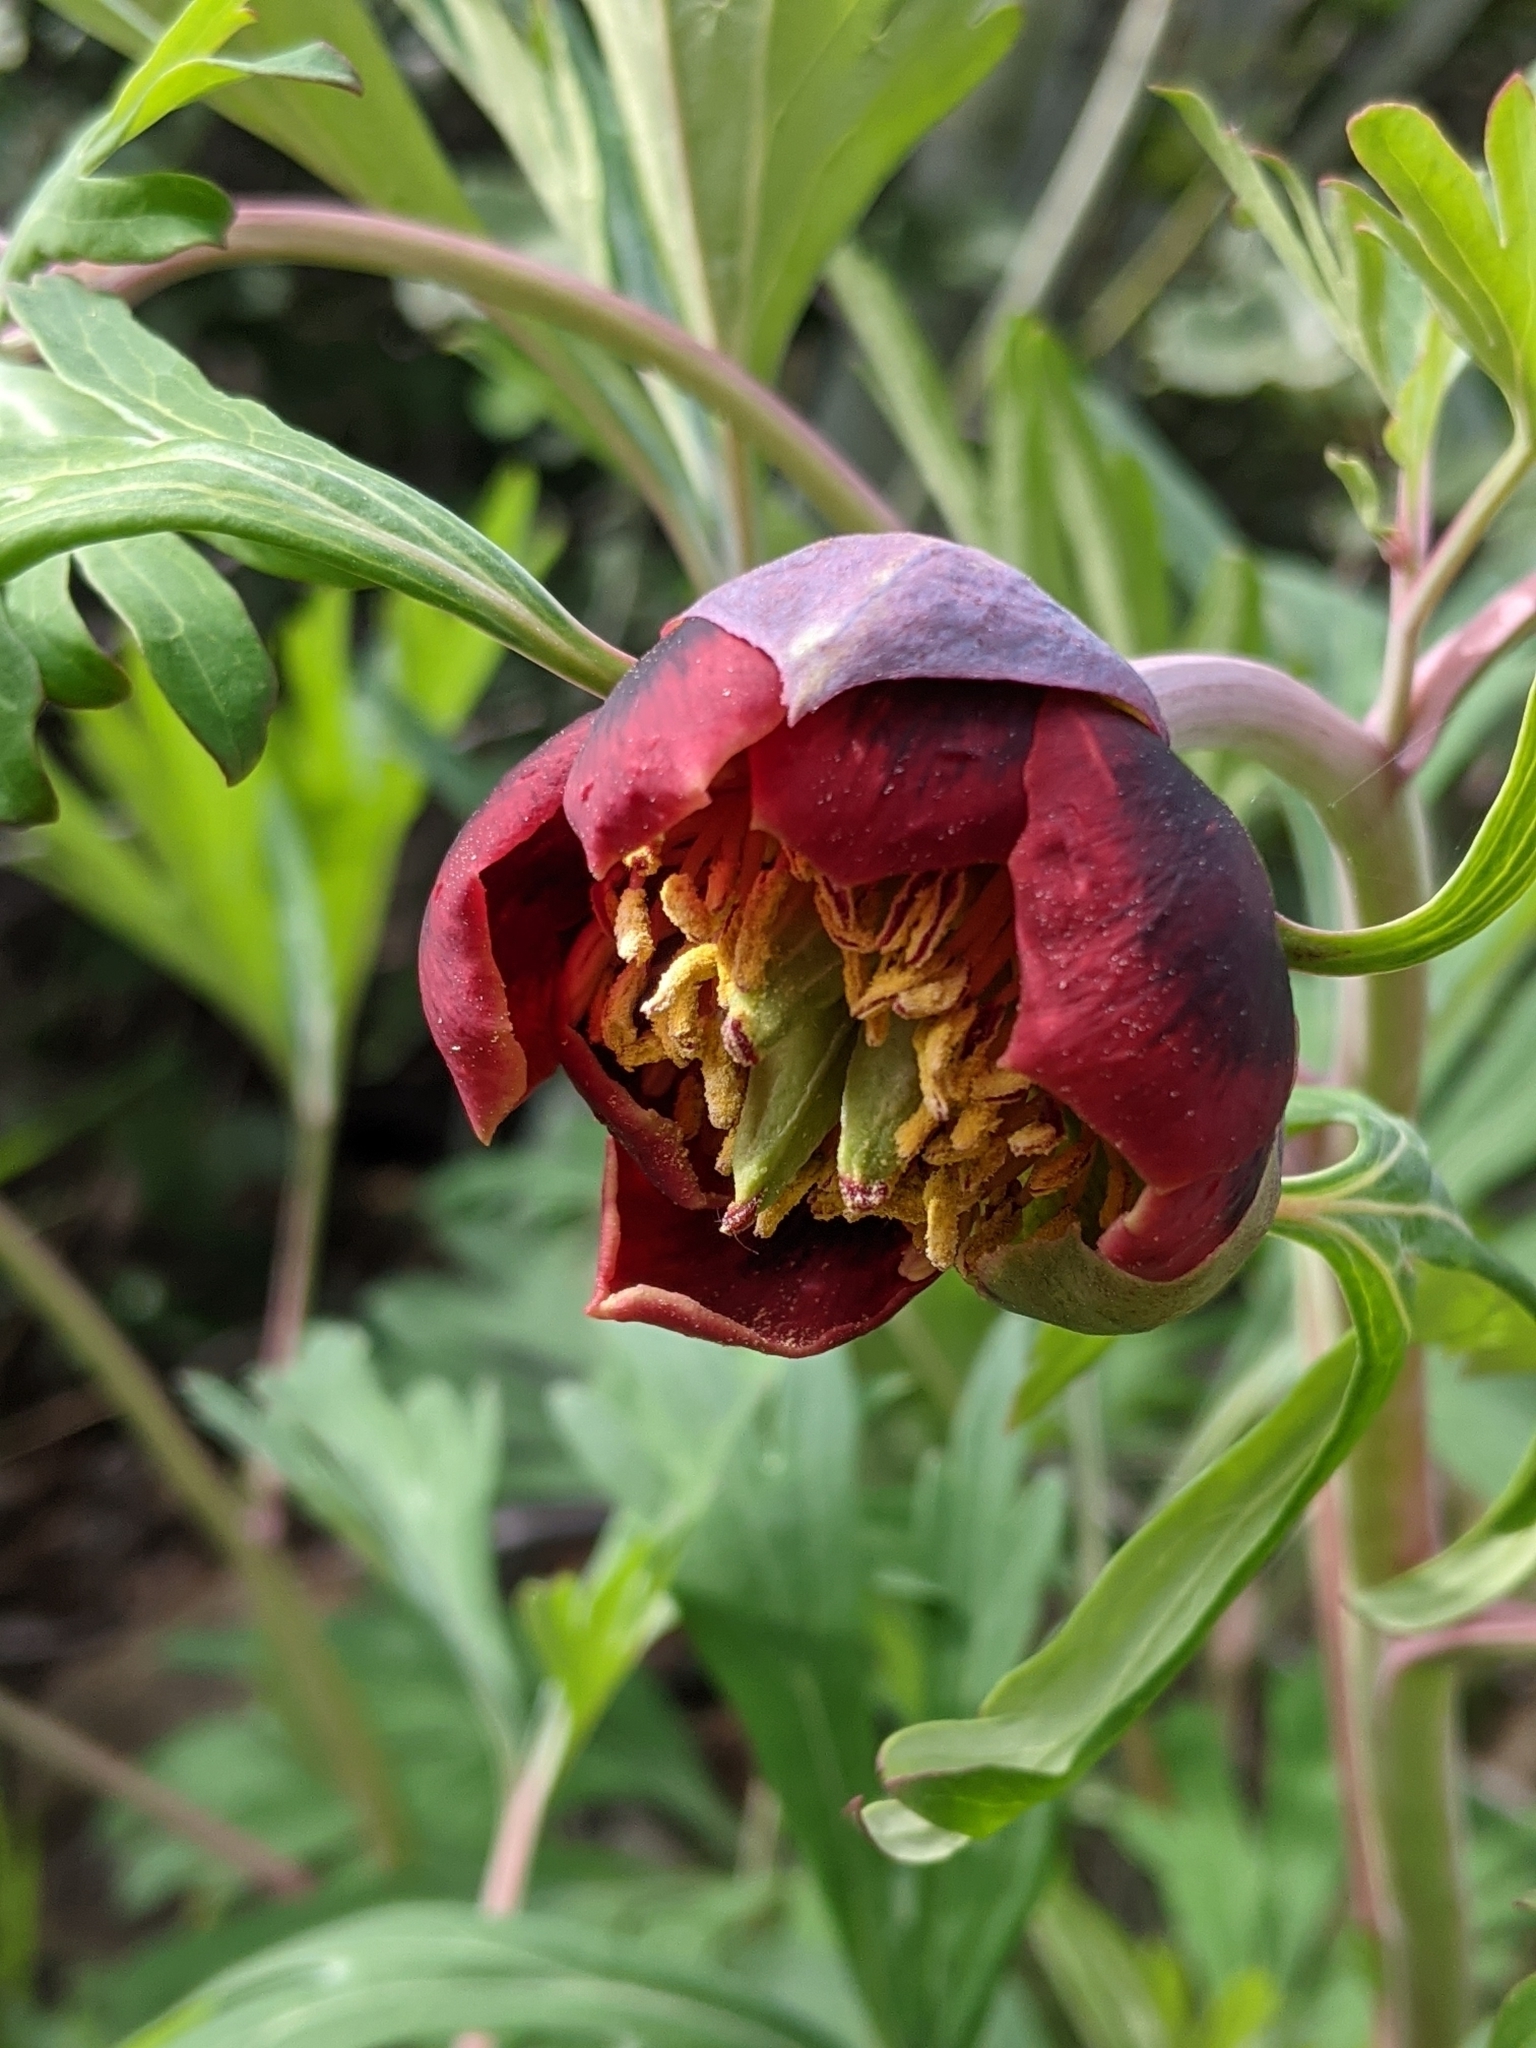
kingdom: Plantae
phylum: Tracheophyta
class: Magnoliopsida
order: Saxifragales
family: Paeoniaceae
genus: Paeonia
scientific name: Paeonia californica
